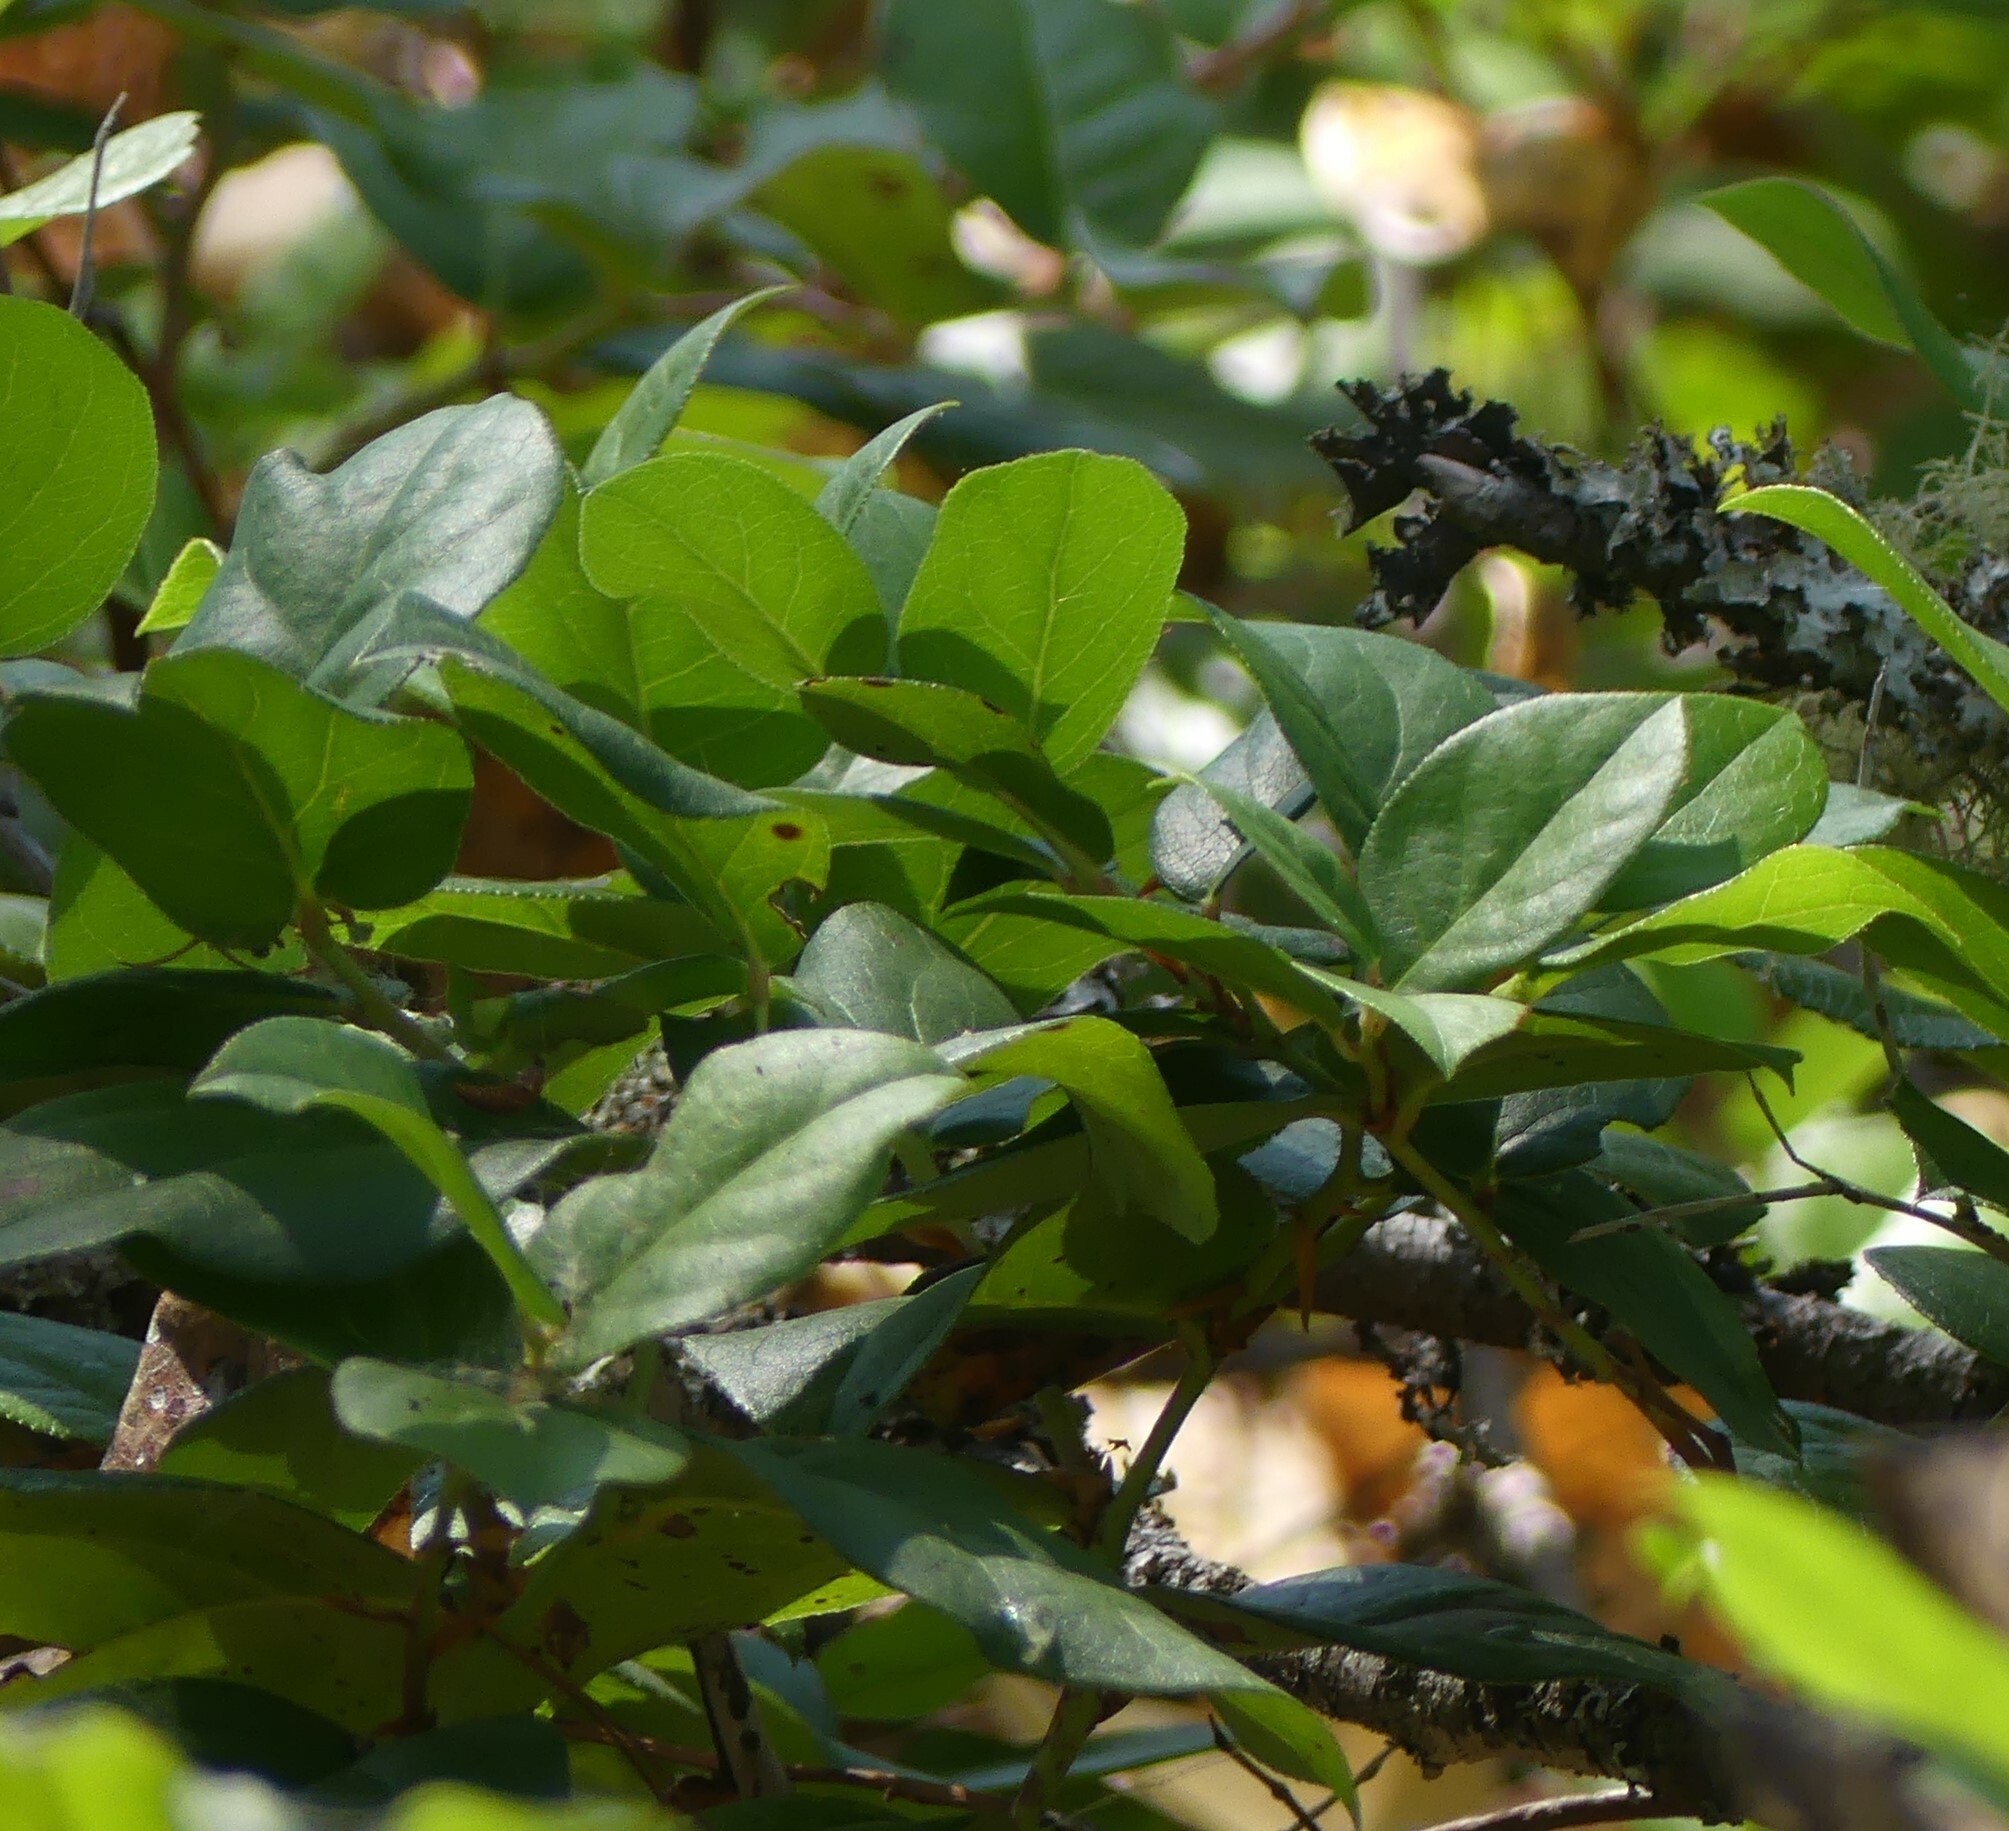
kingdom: Plantae
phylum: Tracheophyta
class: Magnoliopsida
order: Ericales
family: Ericaceae
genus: Gaultheria
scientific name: Gaultheria shallon
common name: Shallon
